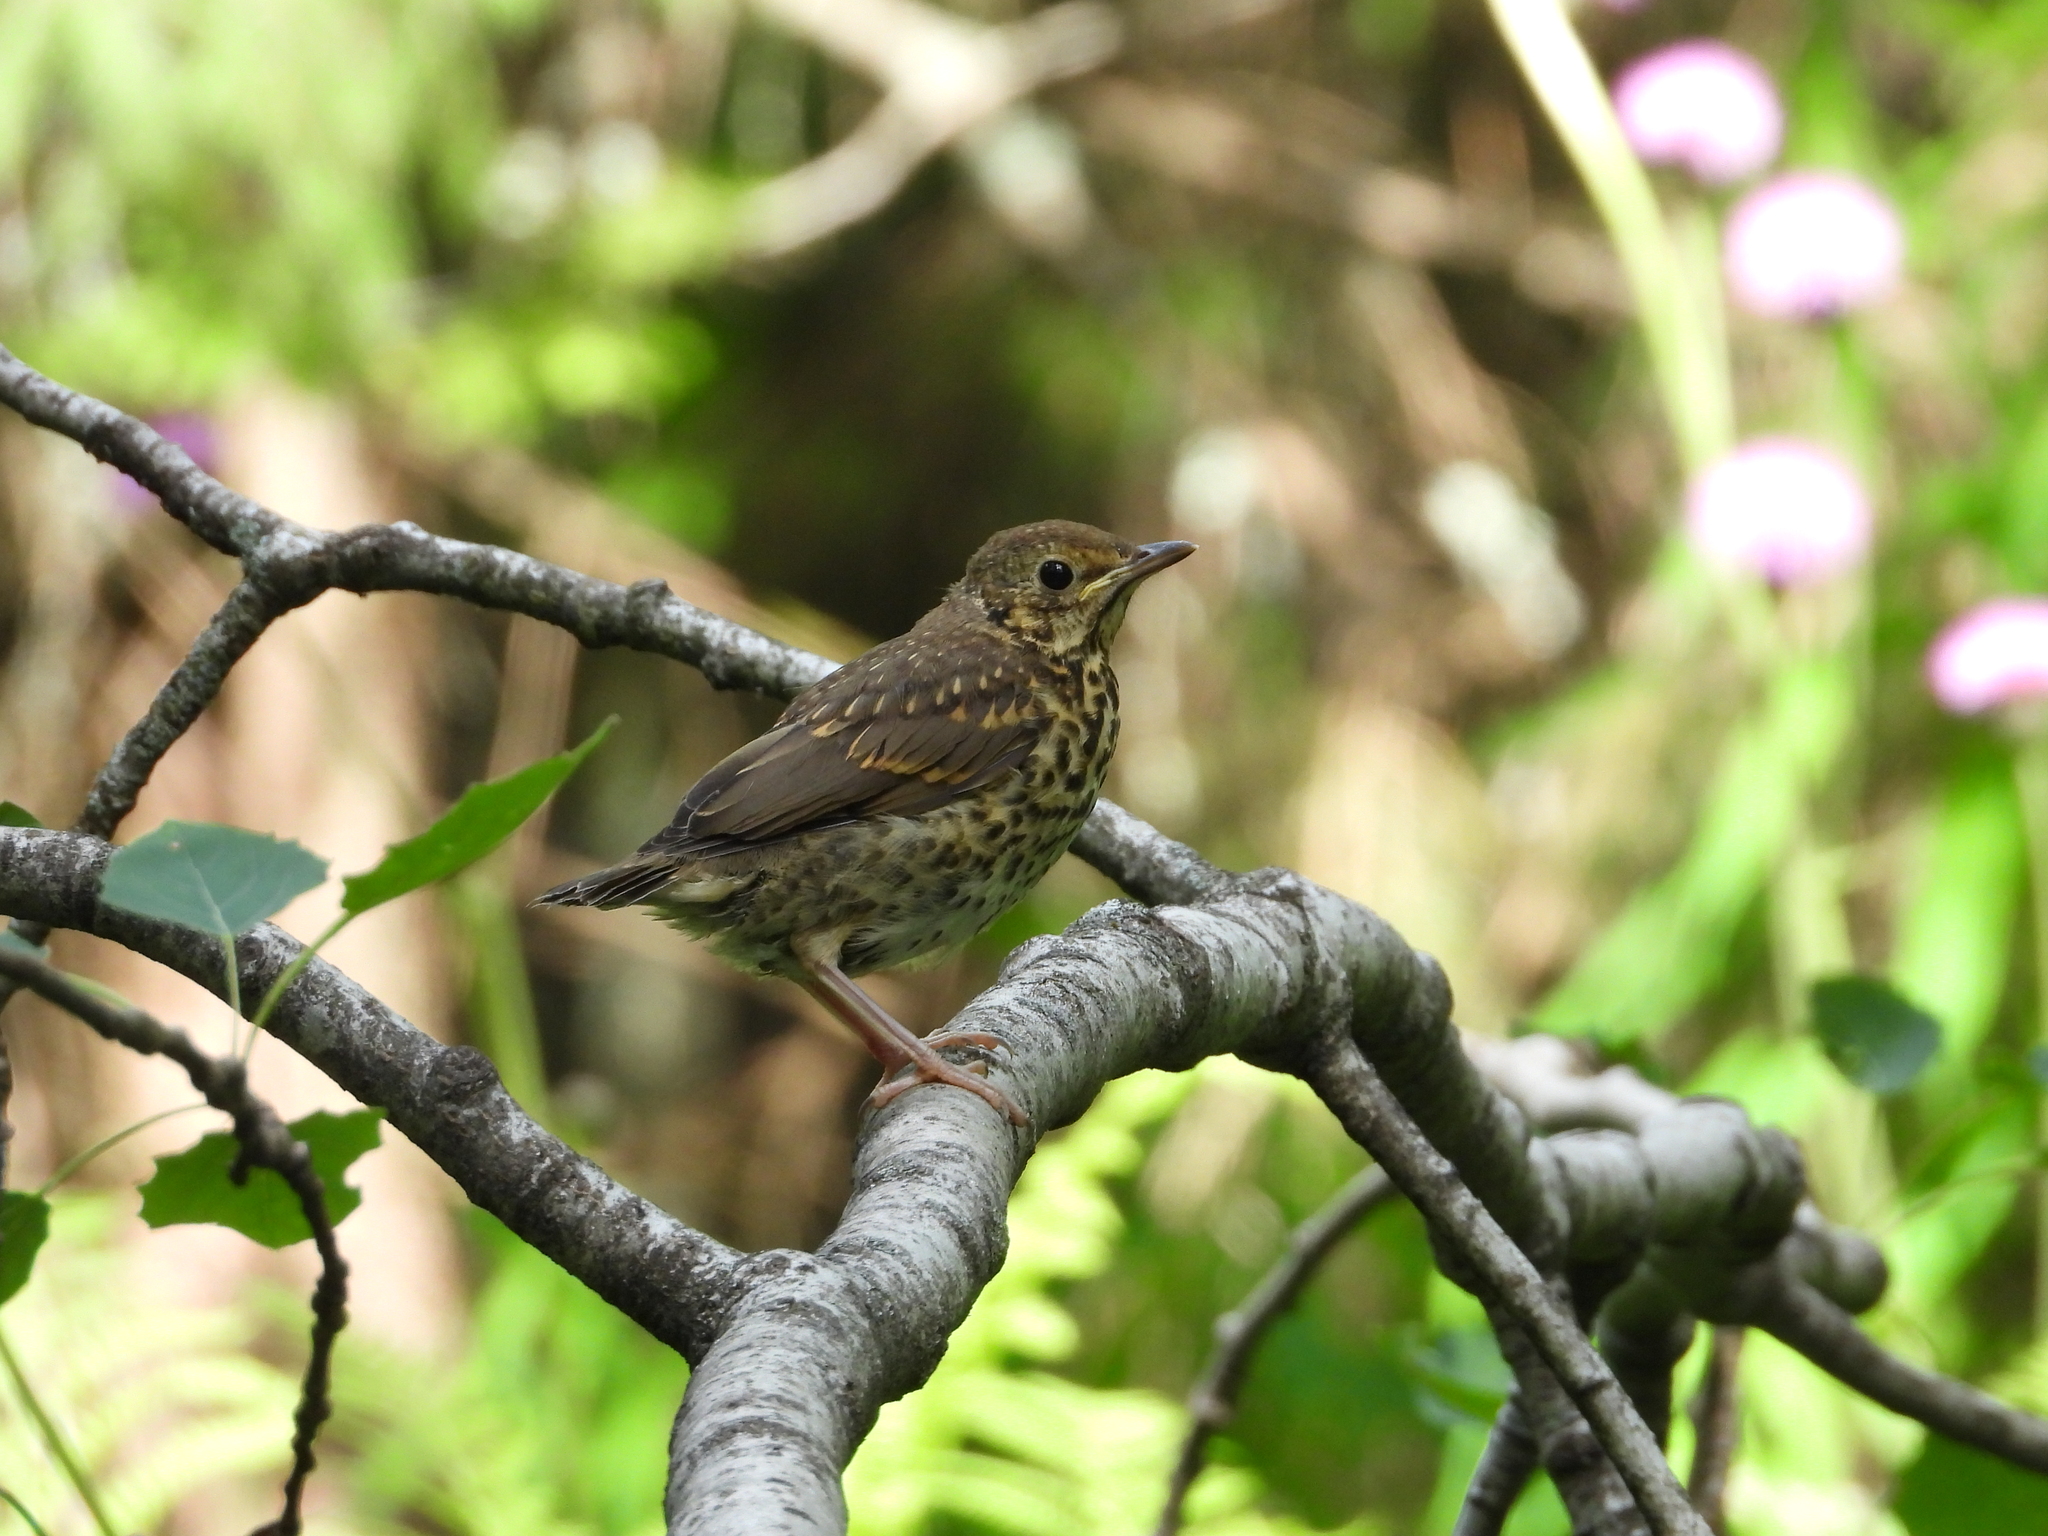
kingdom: Animalia
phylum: Chordata
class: Aves
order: Passeriformes
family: Turdidae
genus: Turdus
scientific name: Turdus philomelos
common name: Song thrush
